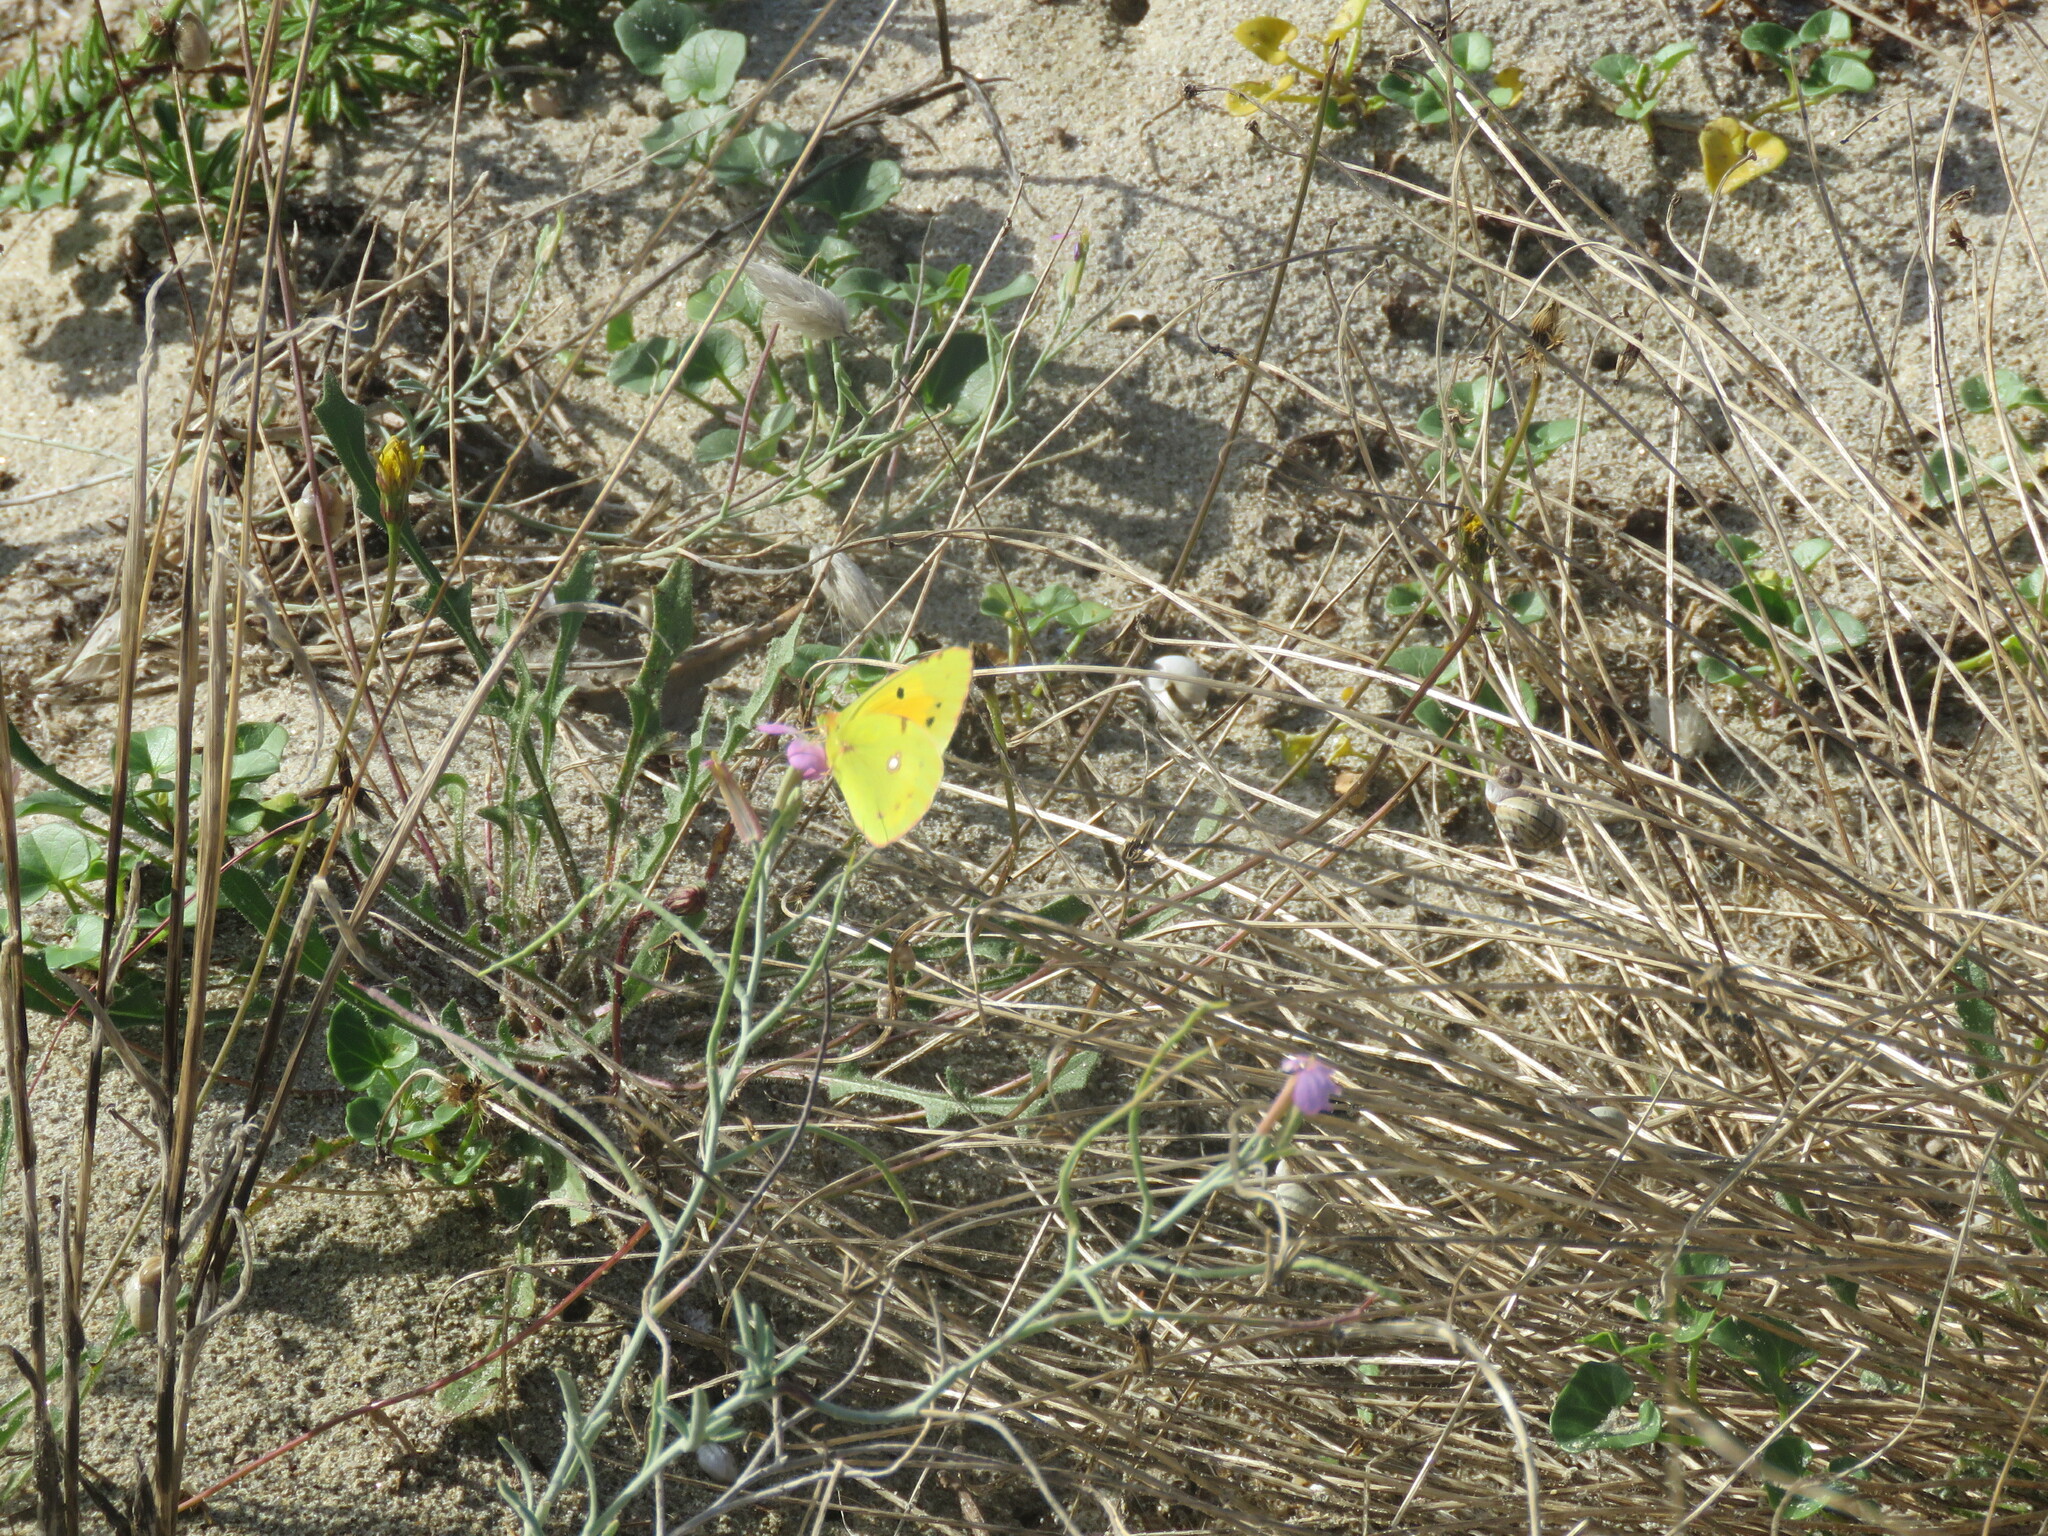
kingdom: Animalia
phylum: Arthropoda
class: Insecta
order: Lepidoptera
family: Pieridae
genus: Colias
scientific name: Colias croceus
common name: Clouded yellow
